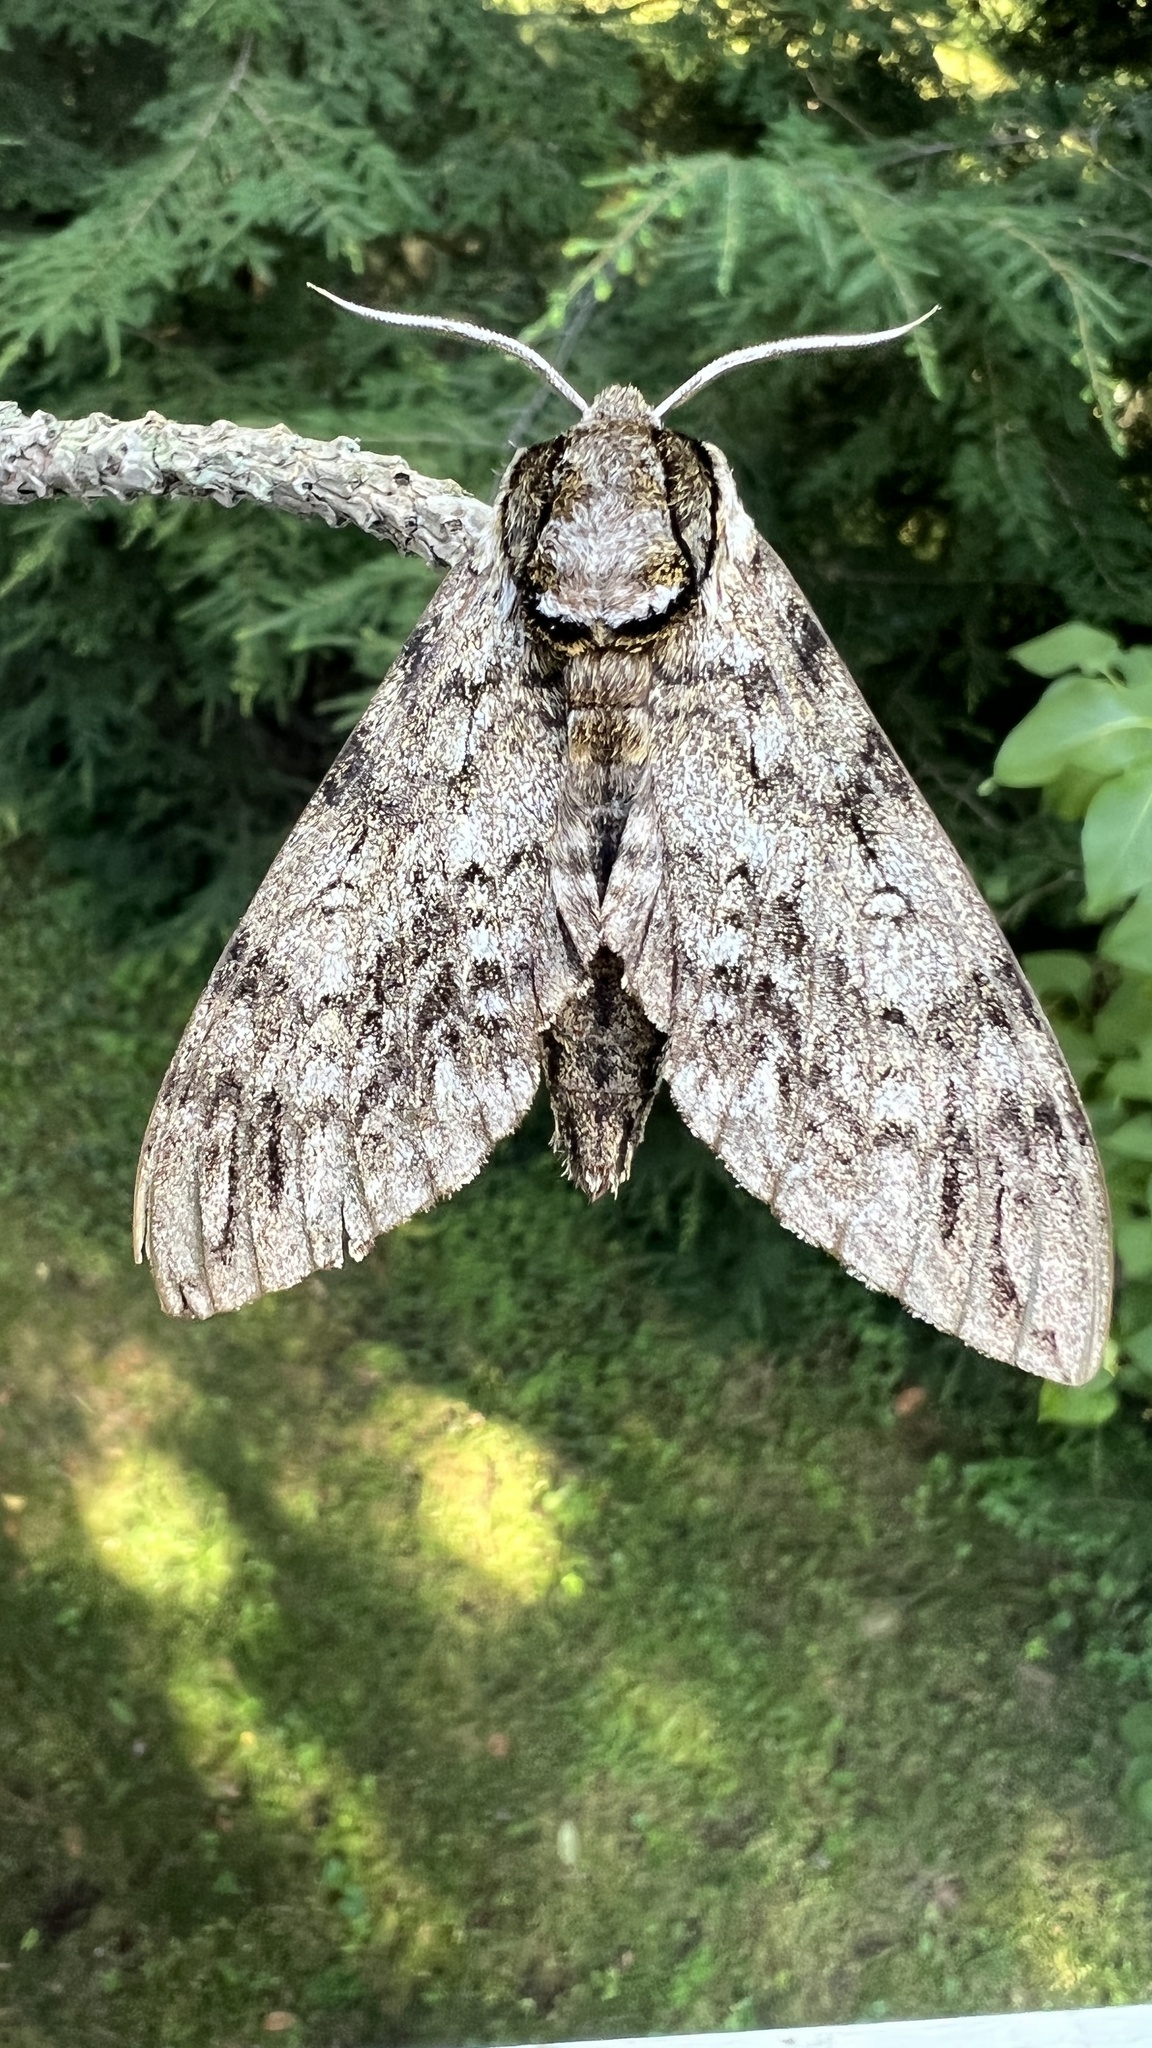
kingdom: Animalia
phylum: Arthropoda
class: Insecta
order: Lepidoptera
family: Sphingidae
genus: Ceratomia
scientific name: Ceratomia undulosa
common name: Waved sphinx
